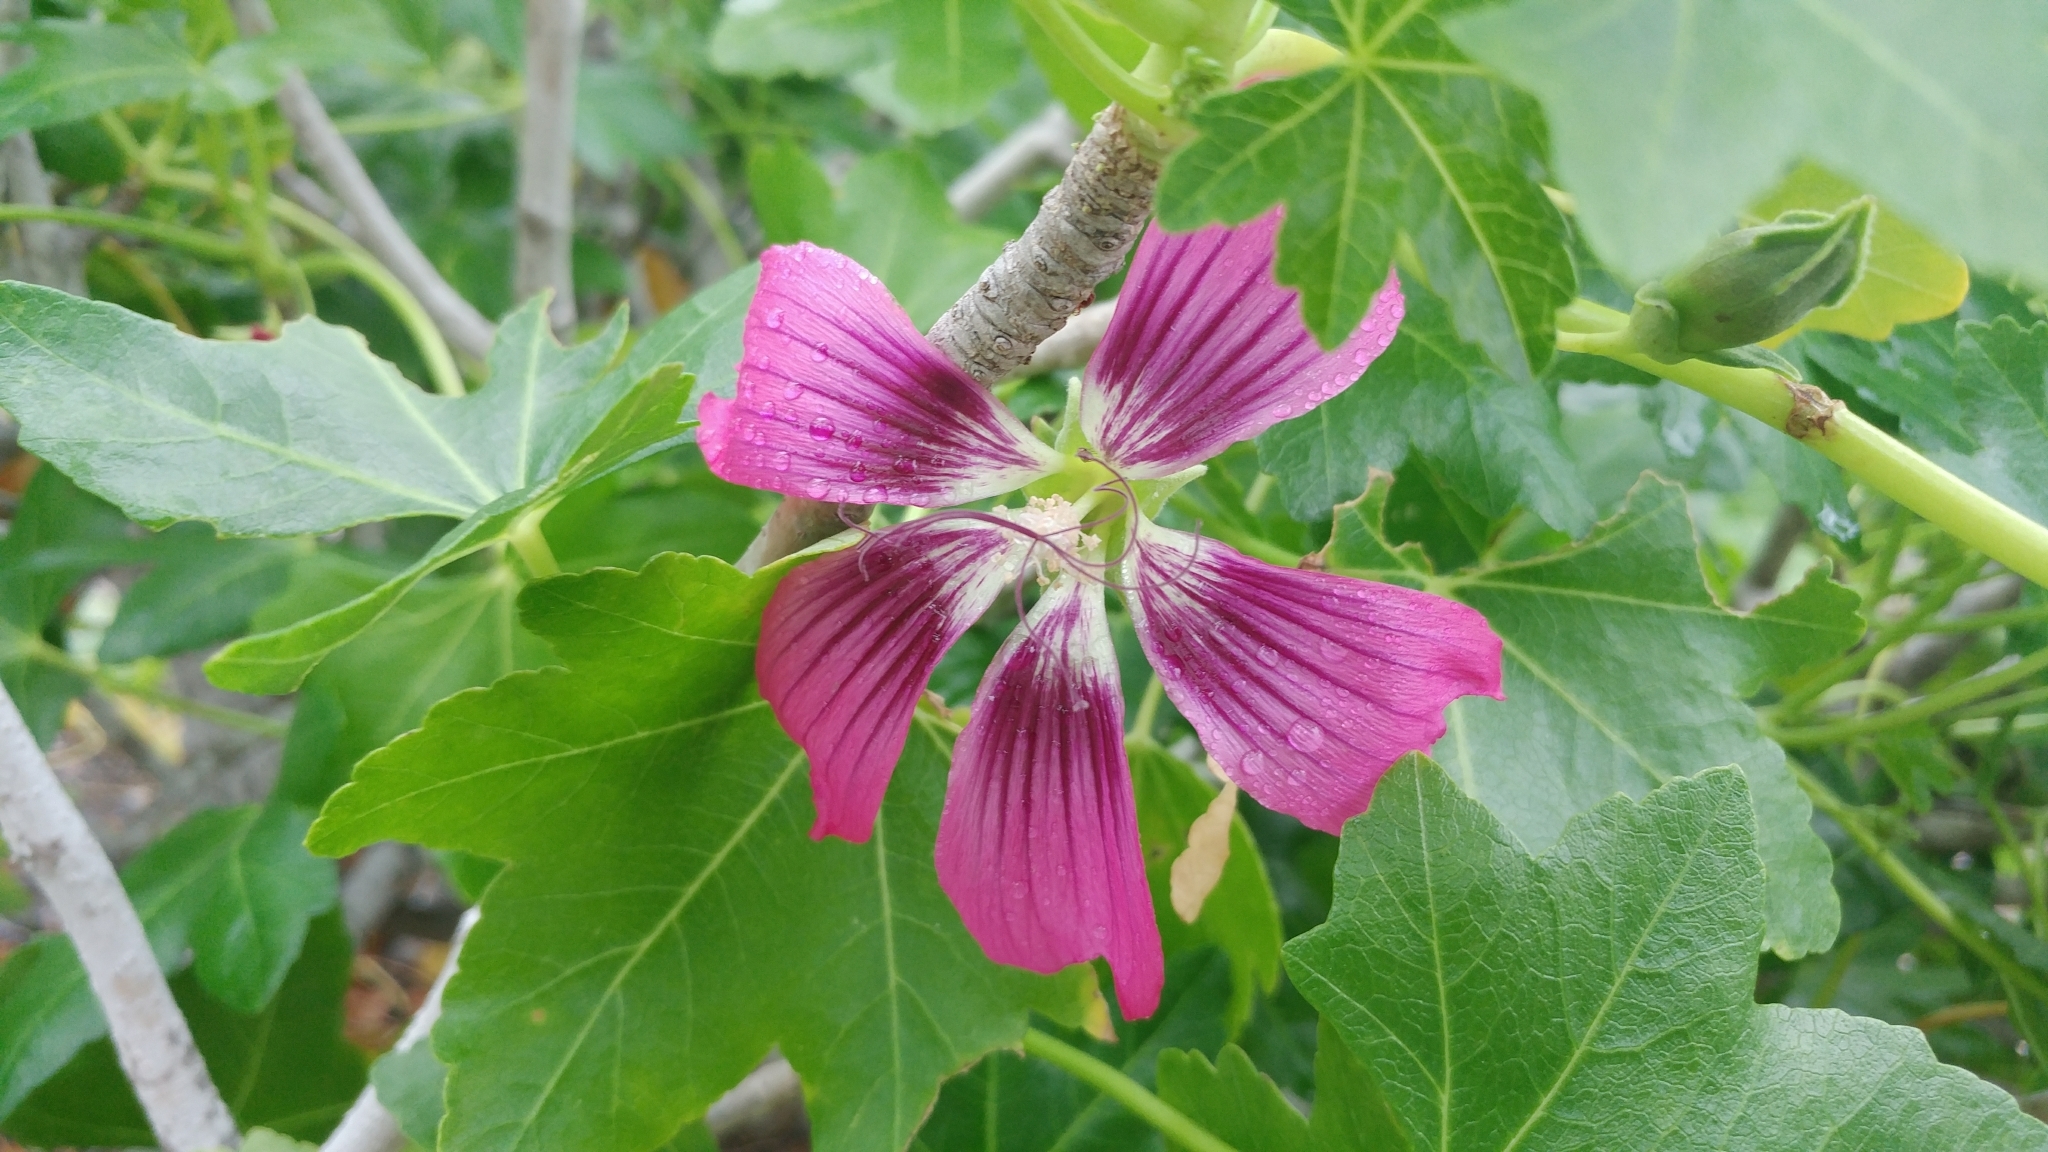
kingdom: Plantae
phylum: Tracheophyta
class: Magnoliopsida
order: Malvales
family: Malvaceae
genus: Malva
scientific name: Malva assurgentiflora
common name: Island mallow
